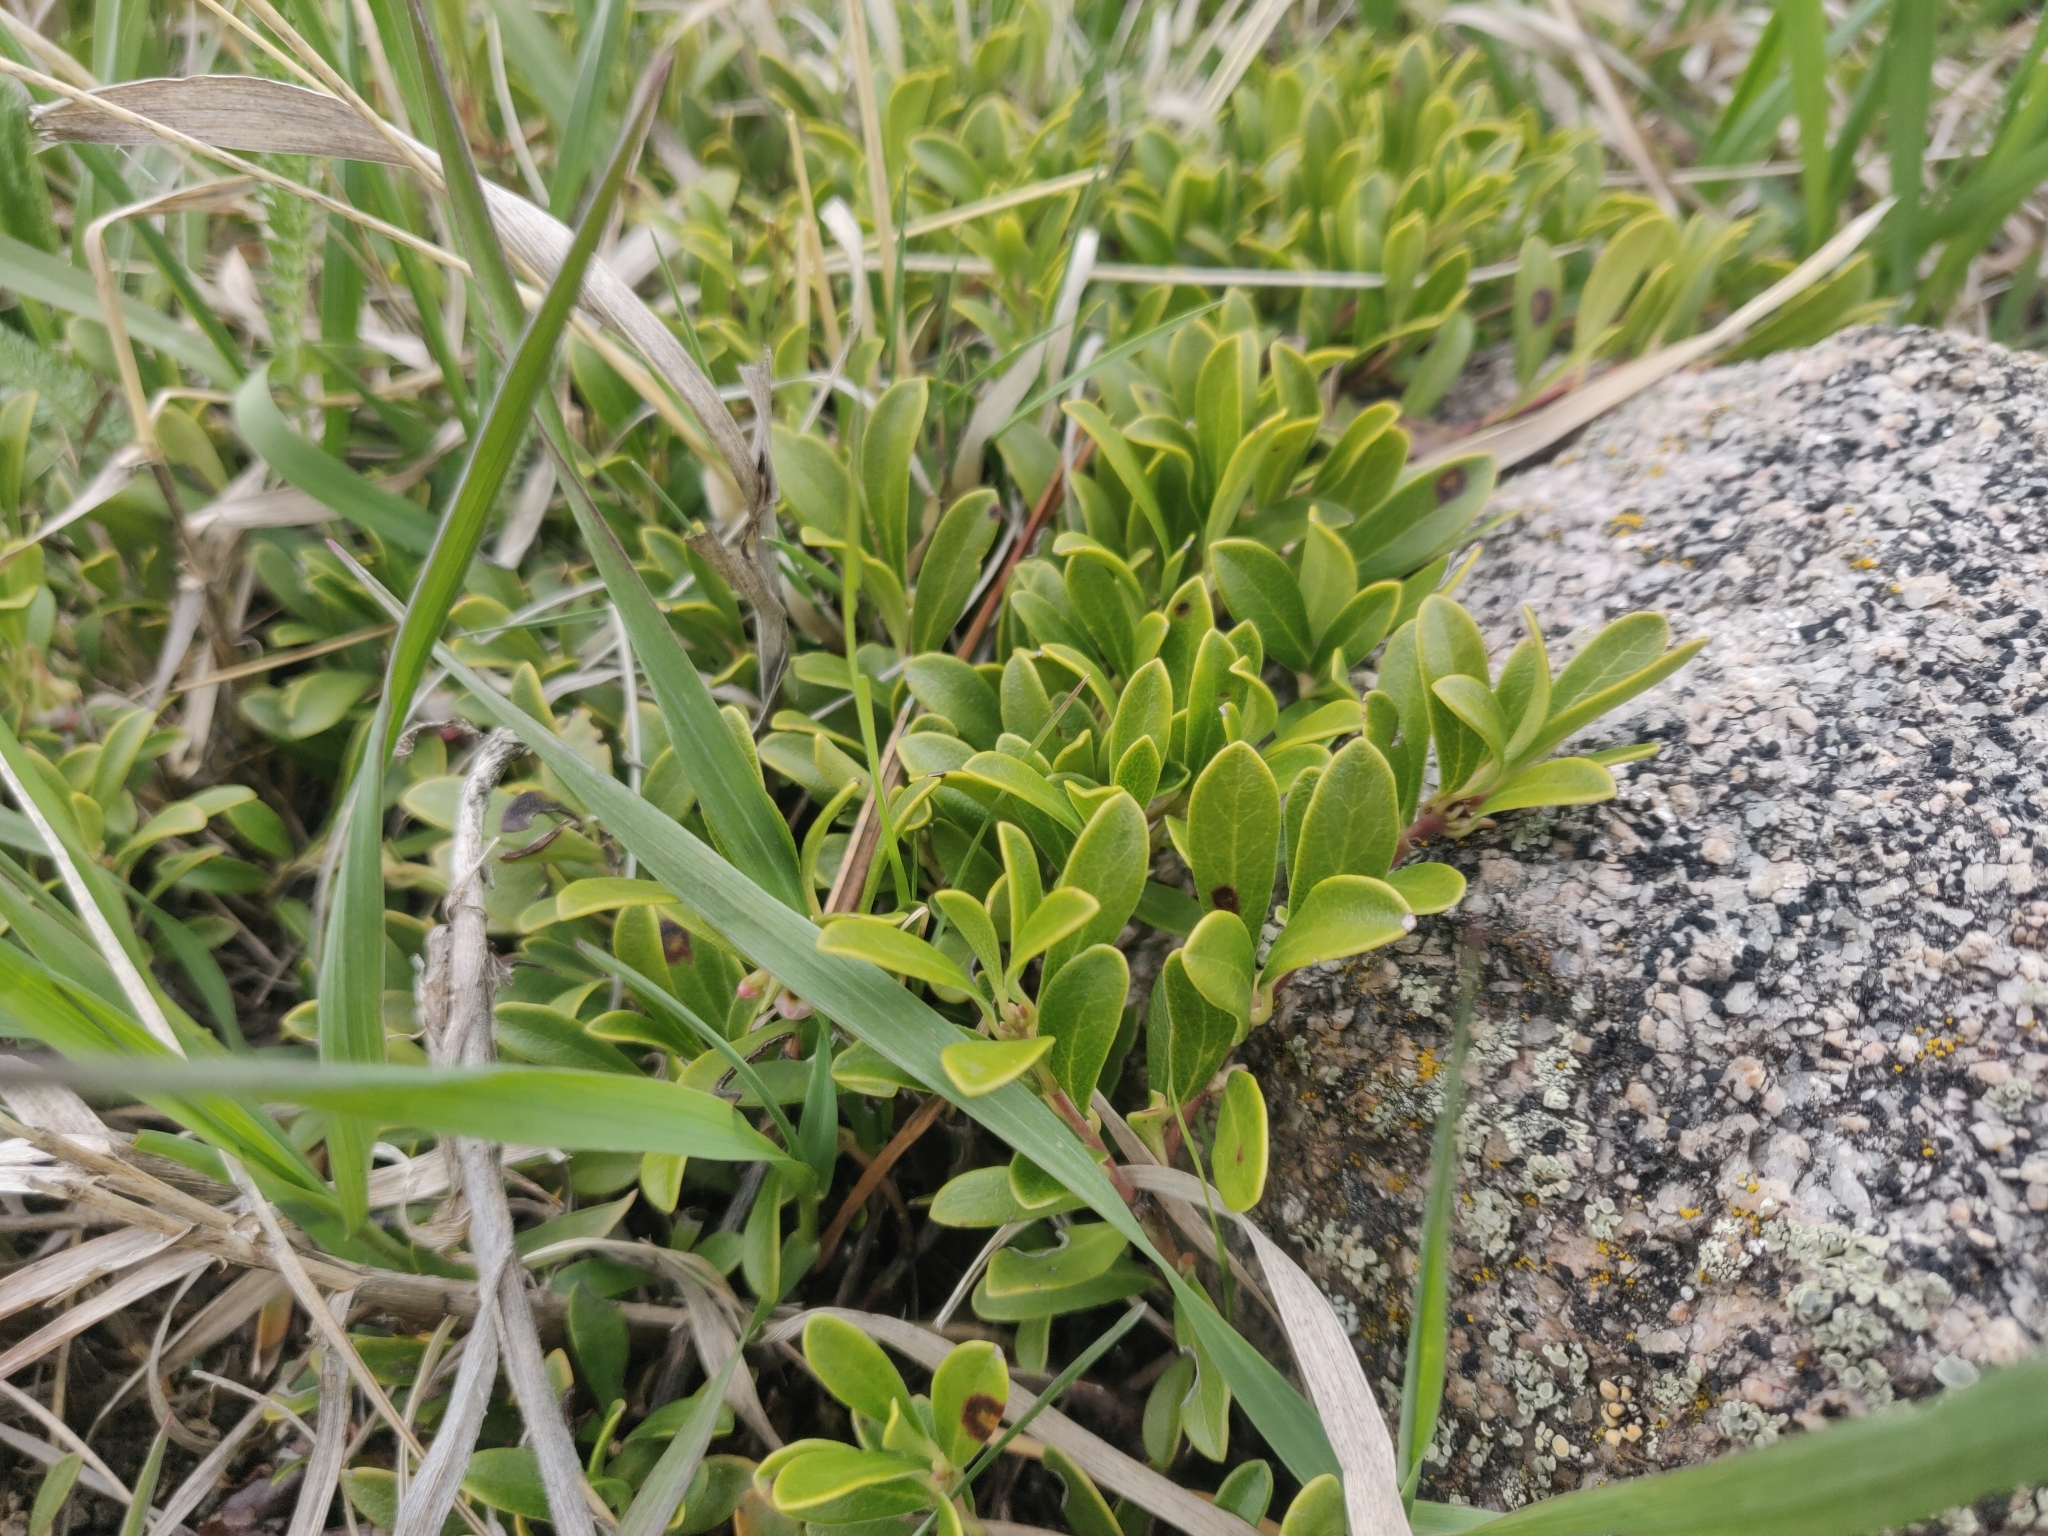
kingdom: Plantae
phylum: Tracheophyta
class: Magnoliopsida
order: Ericales
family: Ericaceae
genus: Arctostaphylos
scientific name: Arctostaphylos uva-ursi
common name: Bearberry
